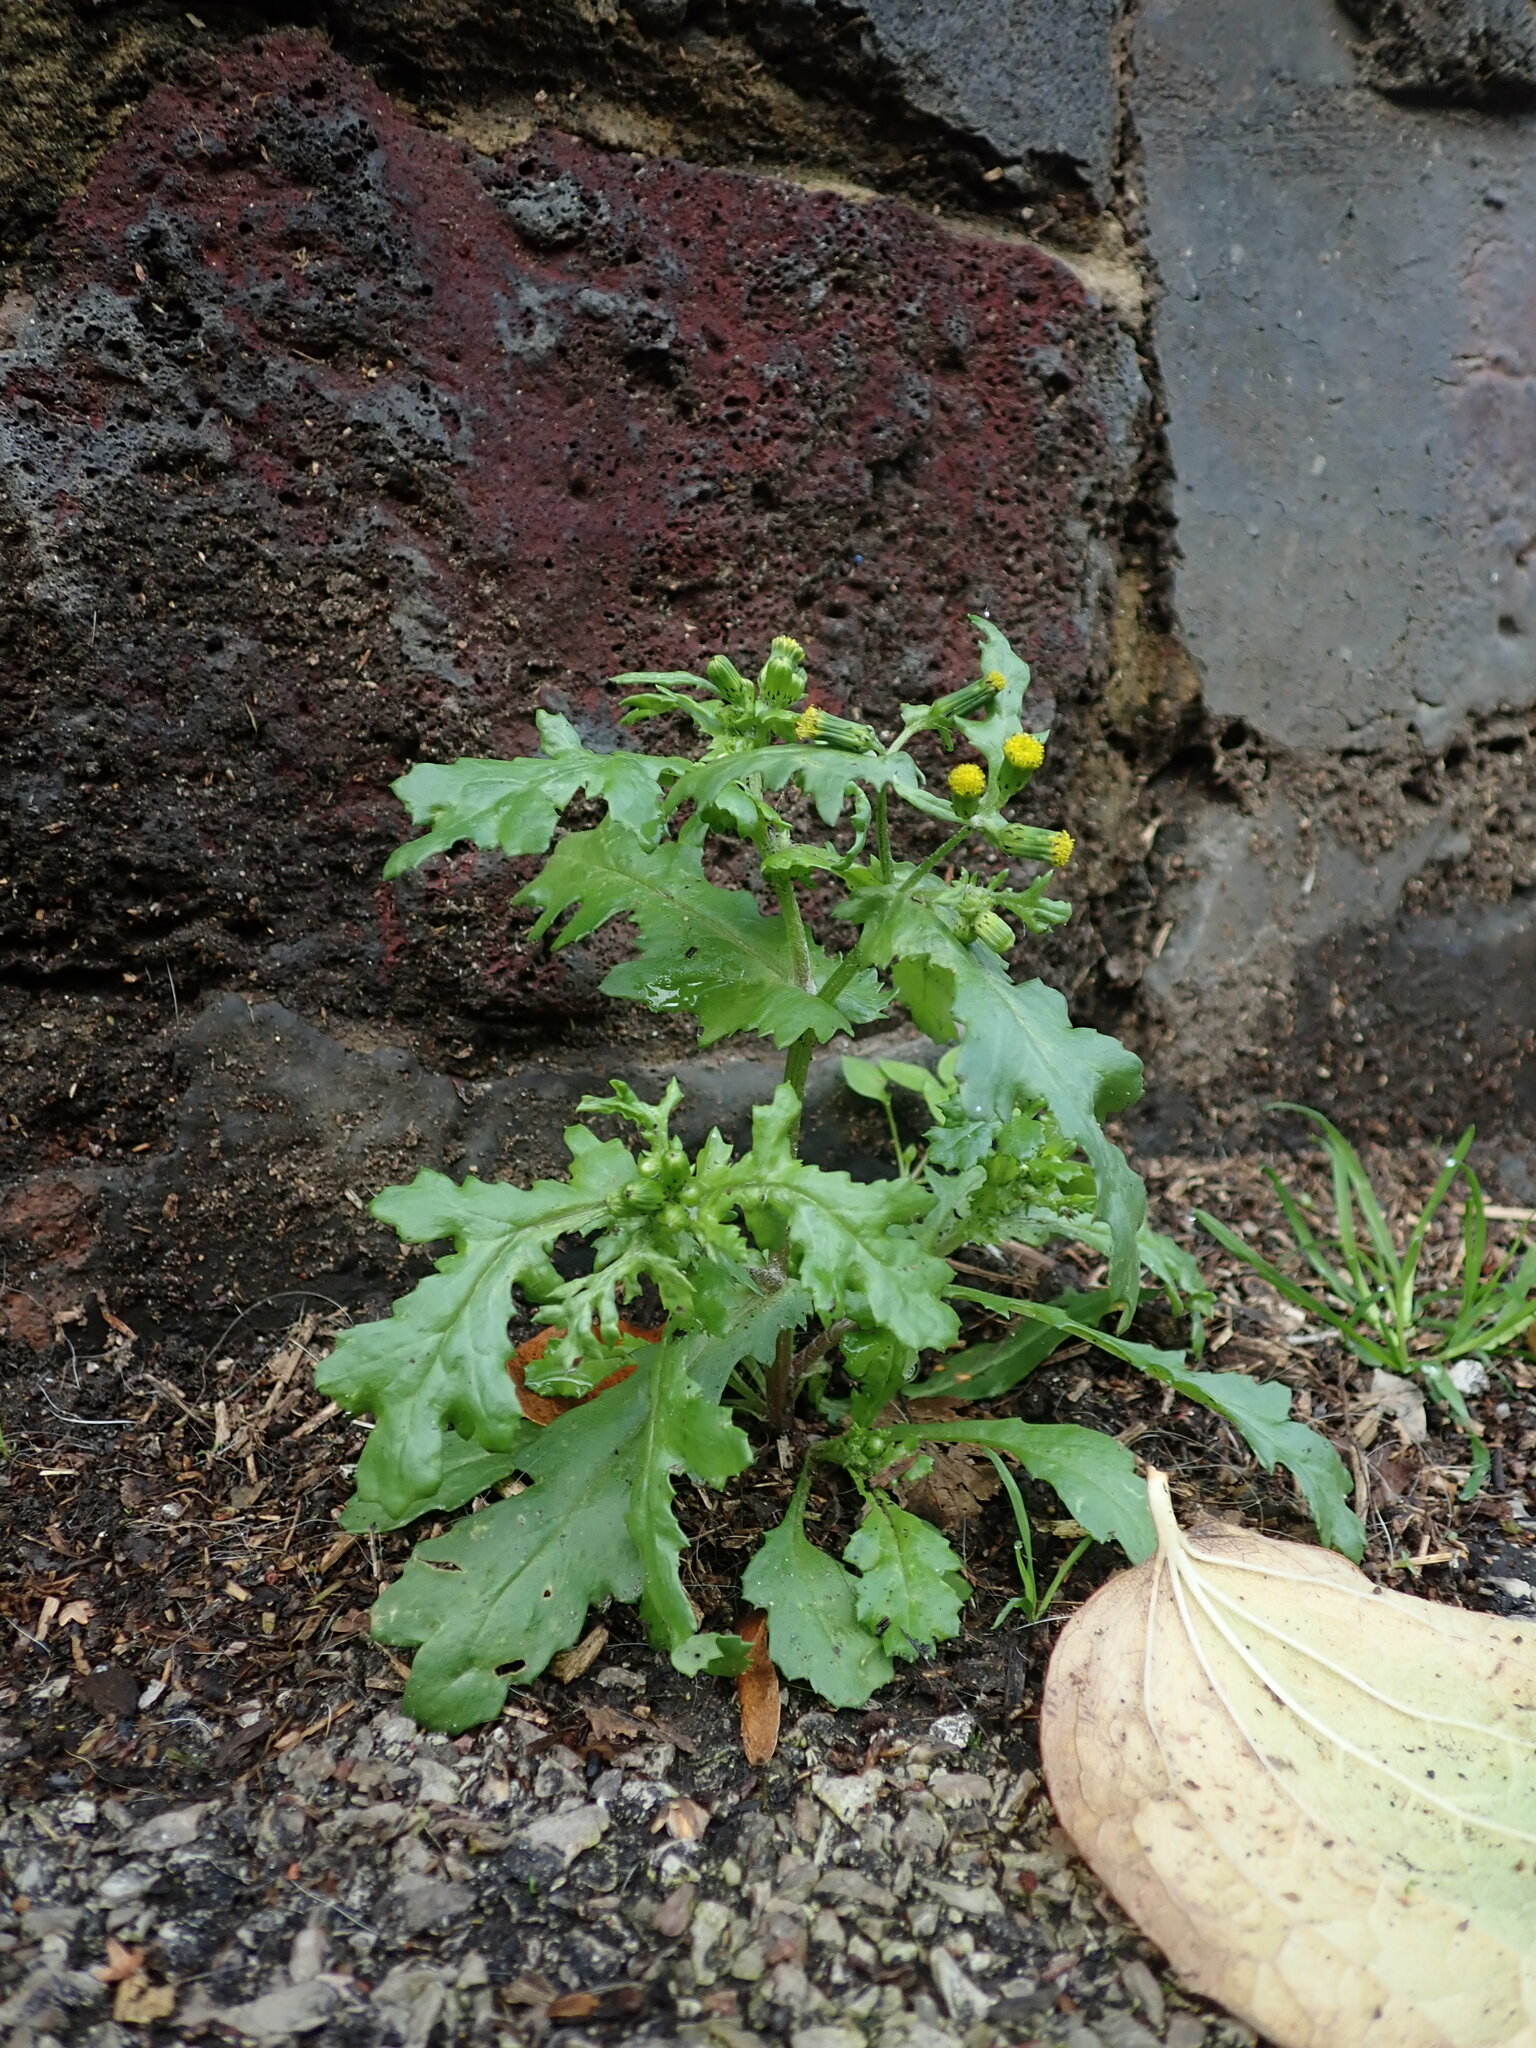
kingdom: Plantae
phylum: Tracheophyta
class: Magnoliopsida
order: Asterales
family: Asteraceae
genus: Senecio
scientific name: Senecio vulgaris
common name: Old-man-in-the-spring
